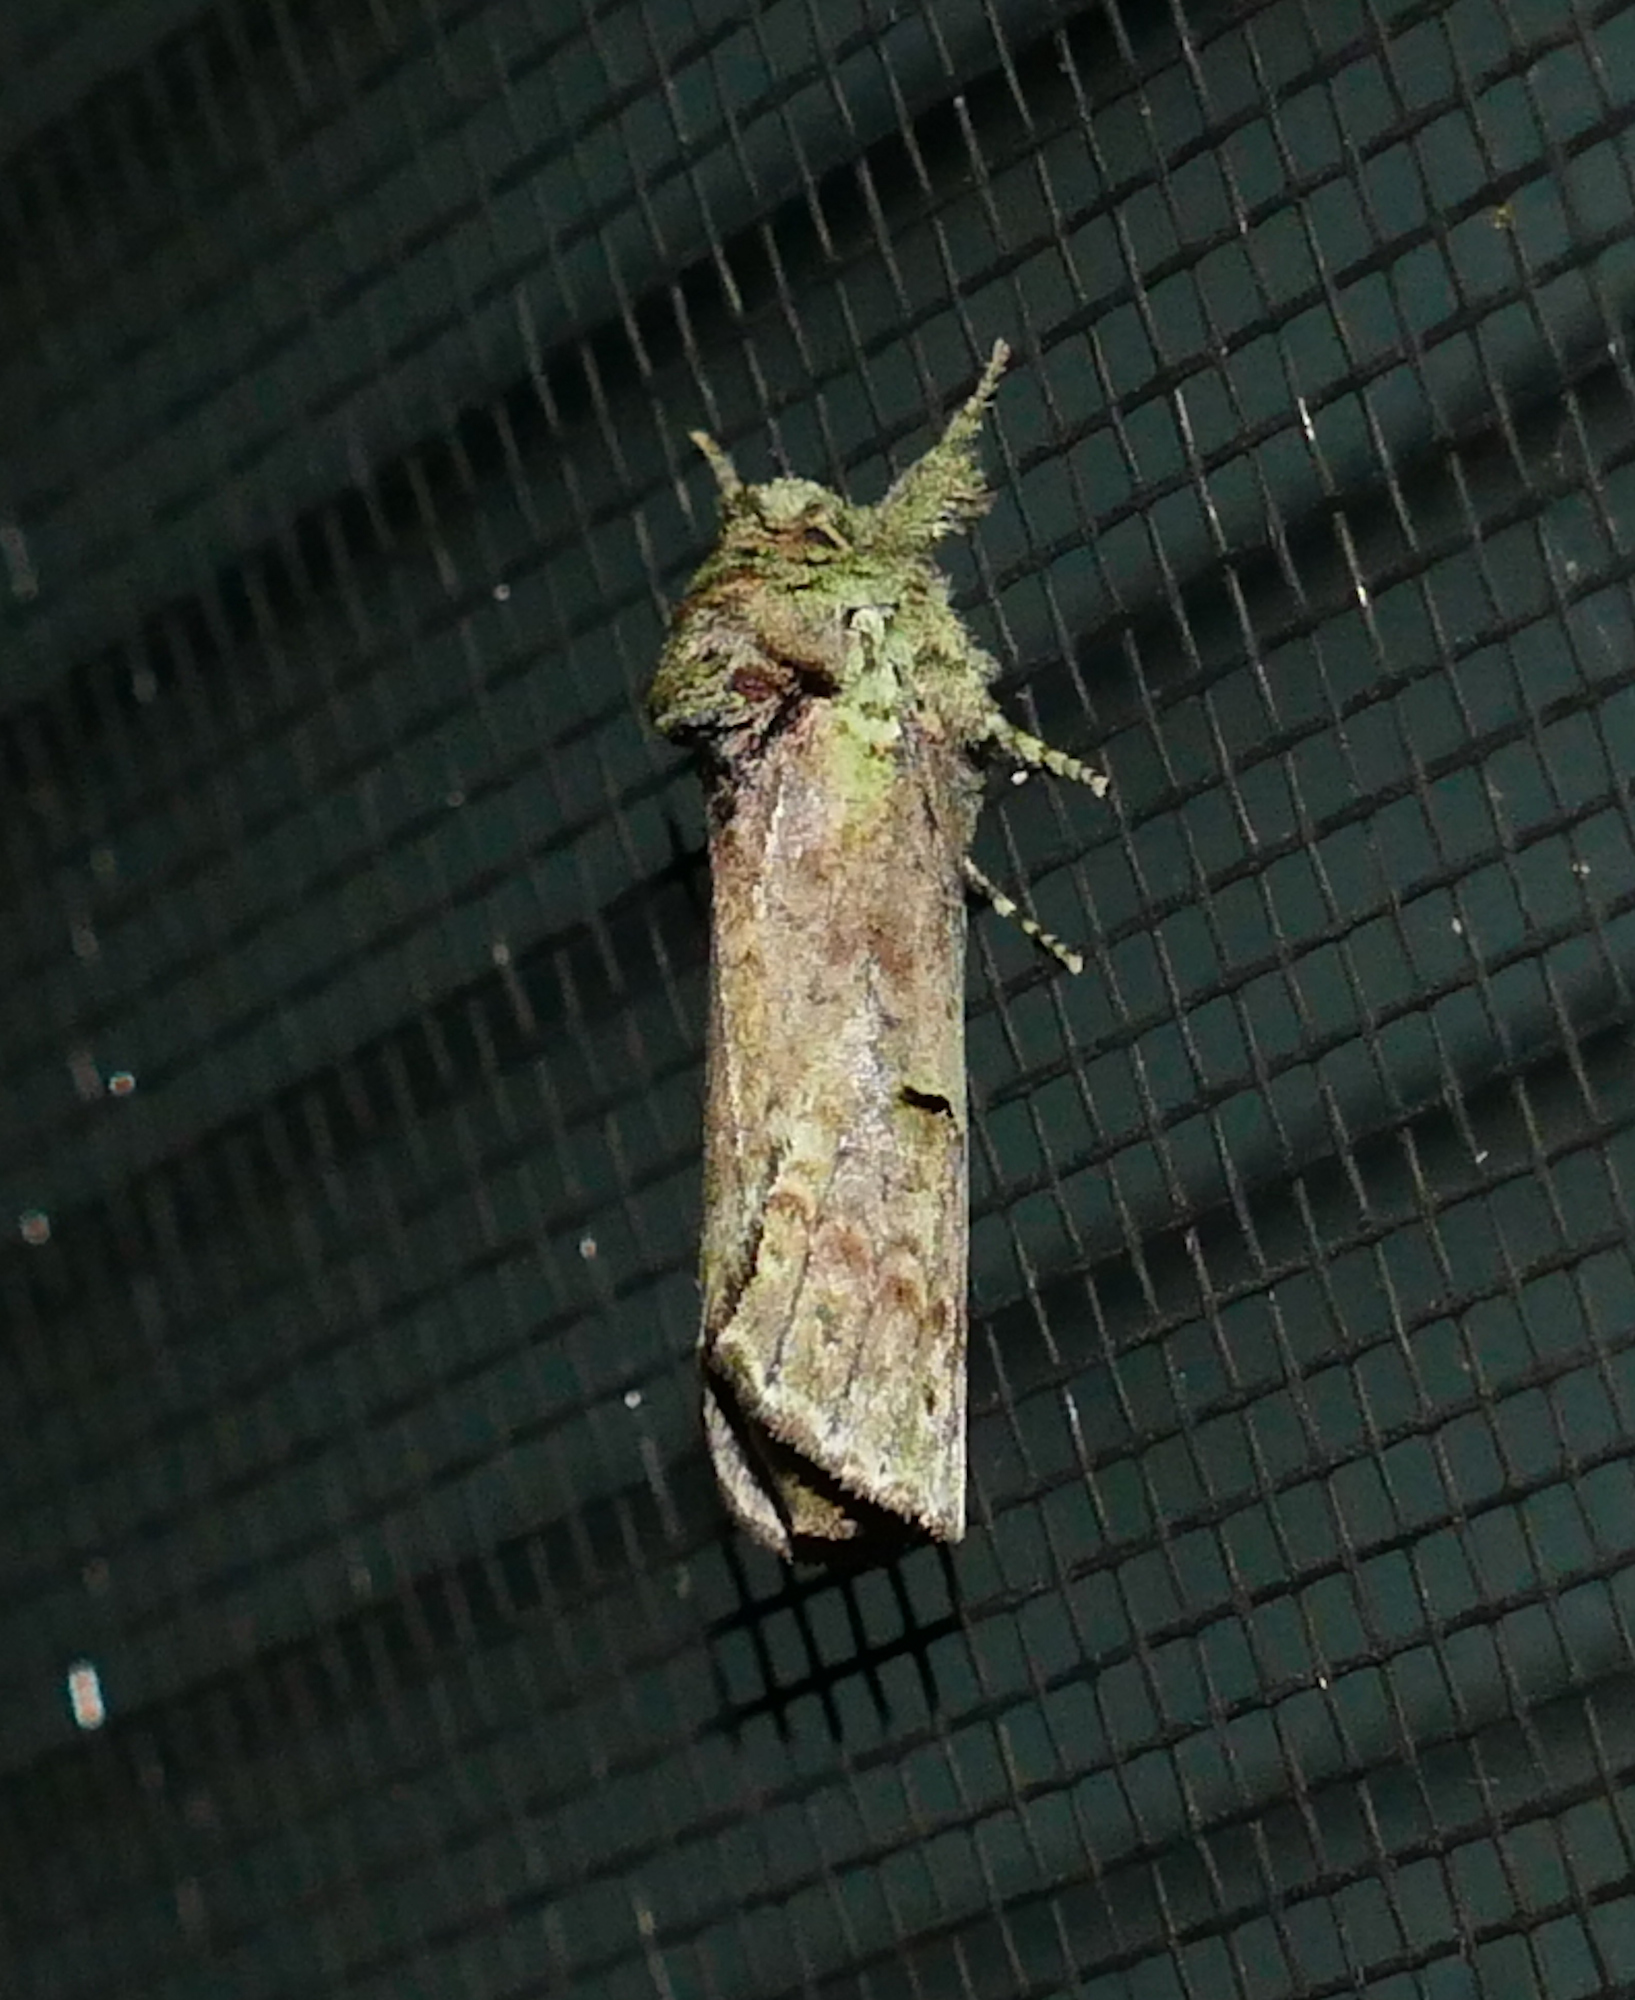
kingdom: Animalia
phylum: Arthropoda
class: Insecta
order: Lepidoptera
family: Notodontidae
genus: Schizura
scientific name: Schizura
